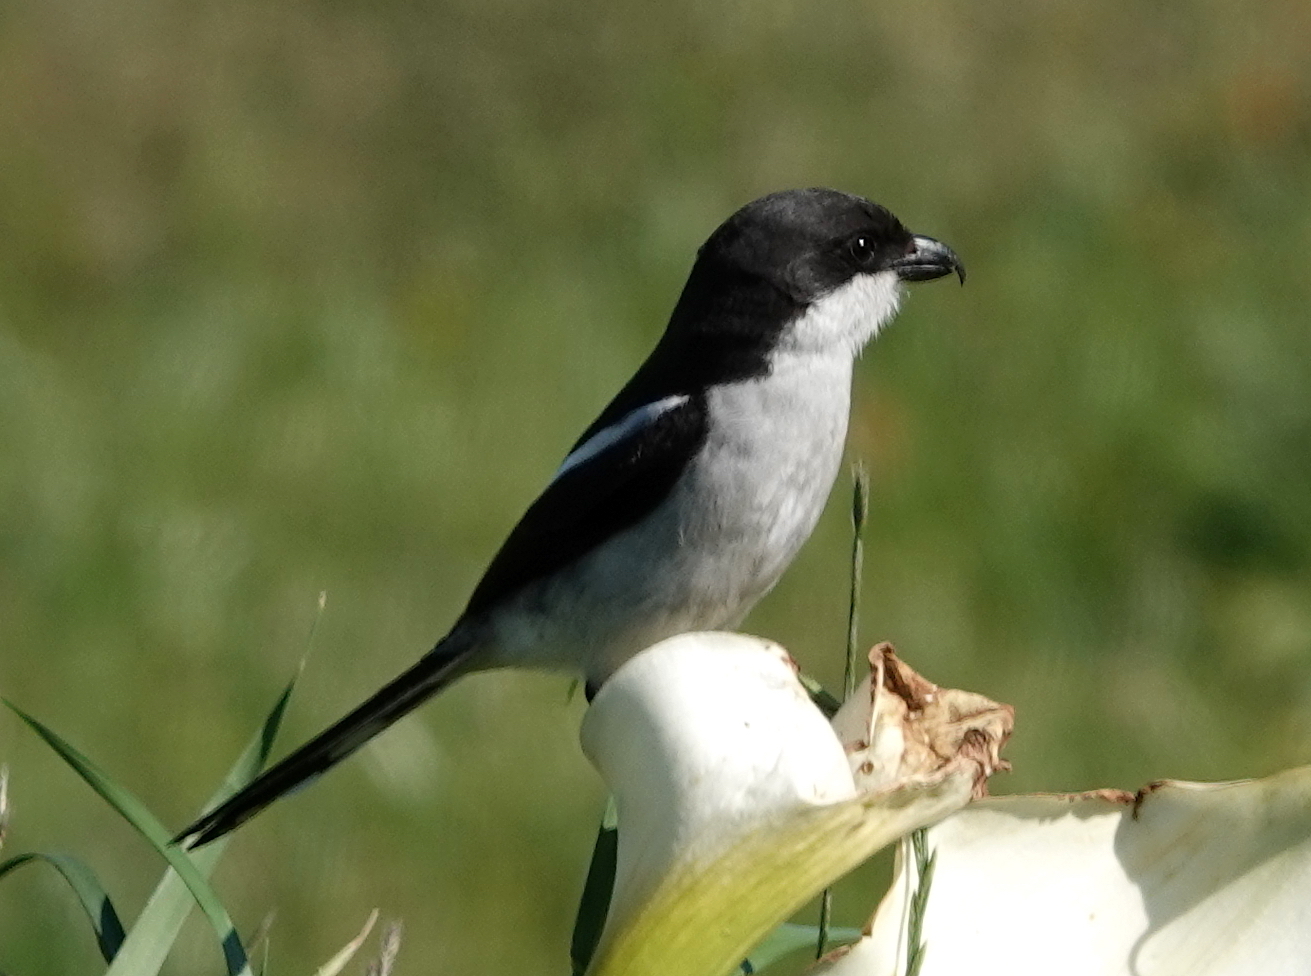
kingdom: Animalia
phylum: Chordata
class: Aves
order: Passeriformes
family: Laniidae
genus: Lanius
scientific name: Lanius collaris
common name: Southern fiscal
